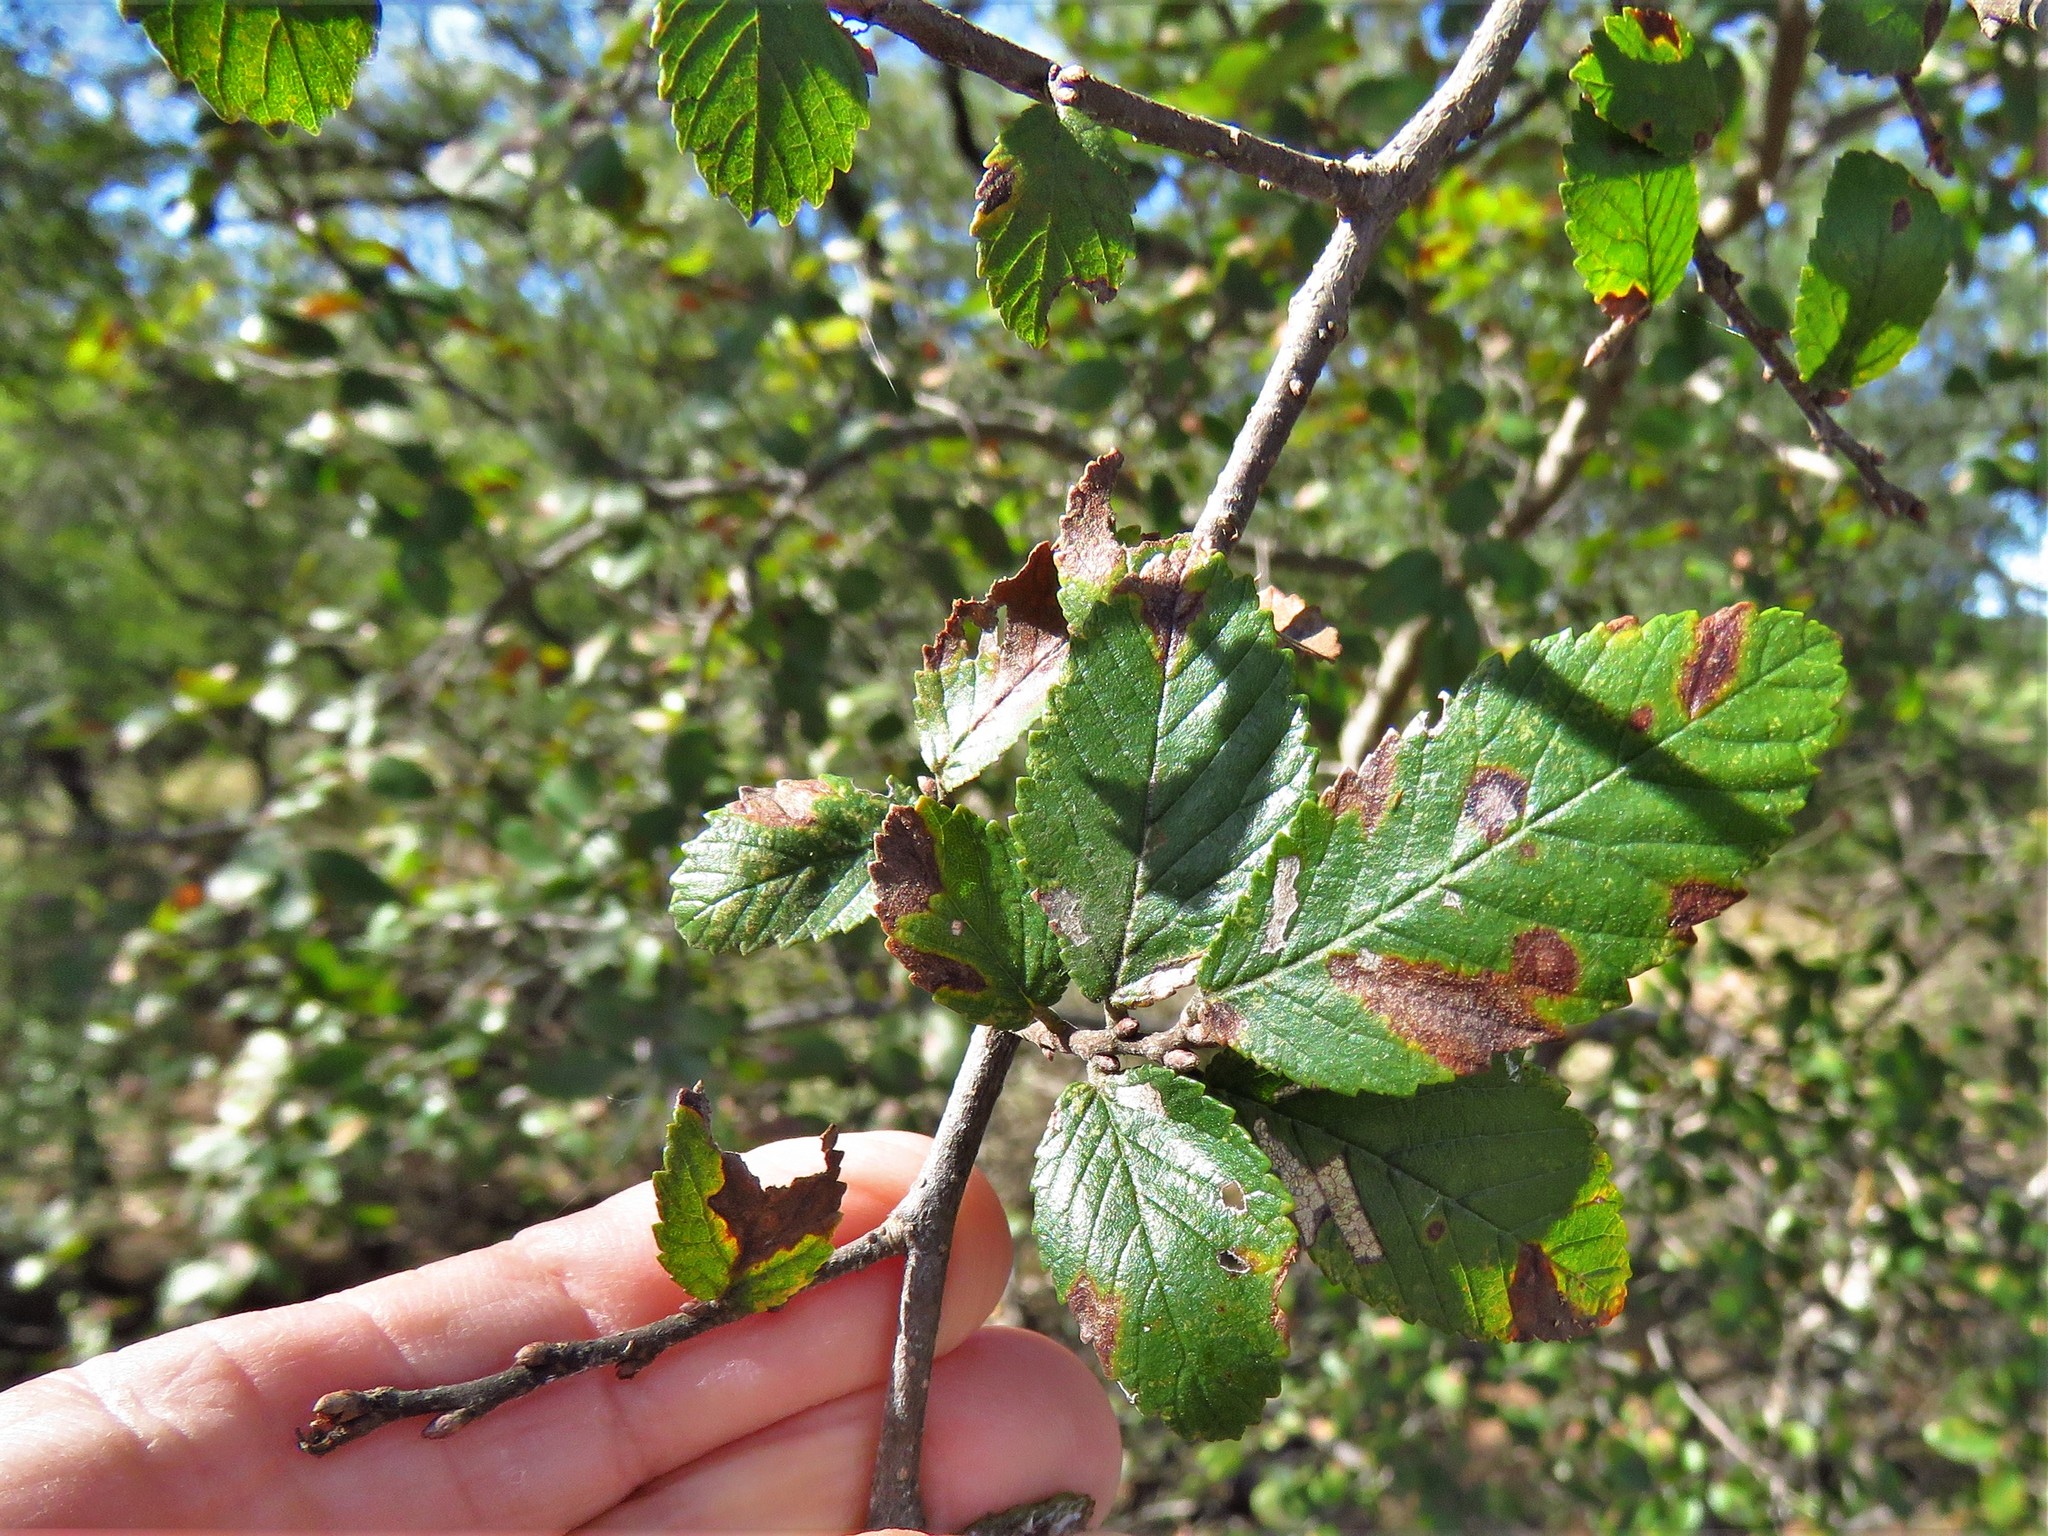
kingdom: Plantae
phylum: Tracheophyta
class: Magnoliopsida
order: Rosales
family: Ulmaceae
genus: Ulmus
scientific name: Ulmus crassifolia
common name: Basket elm
